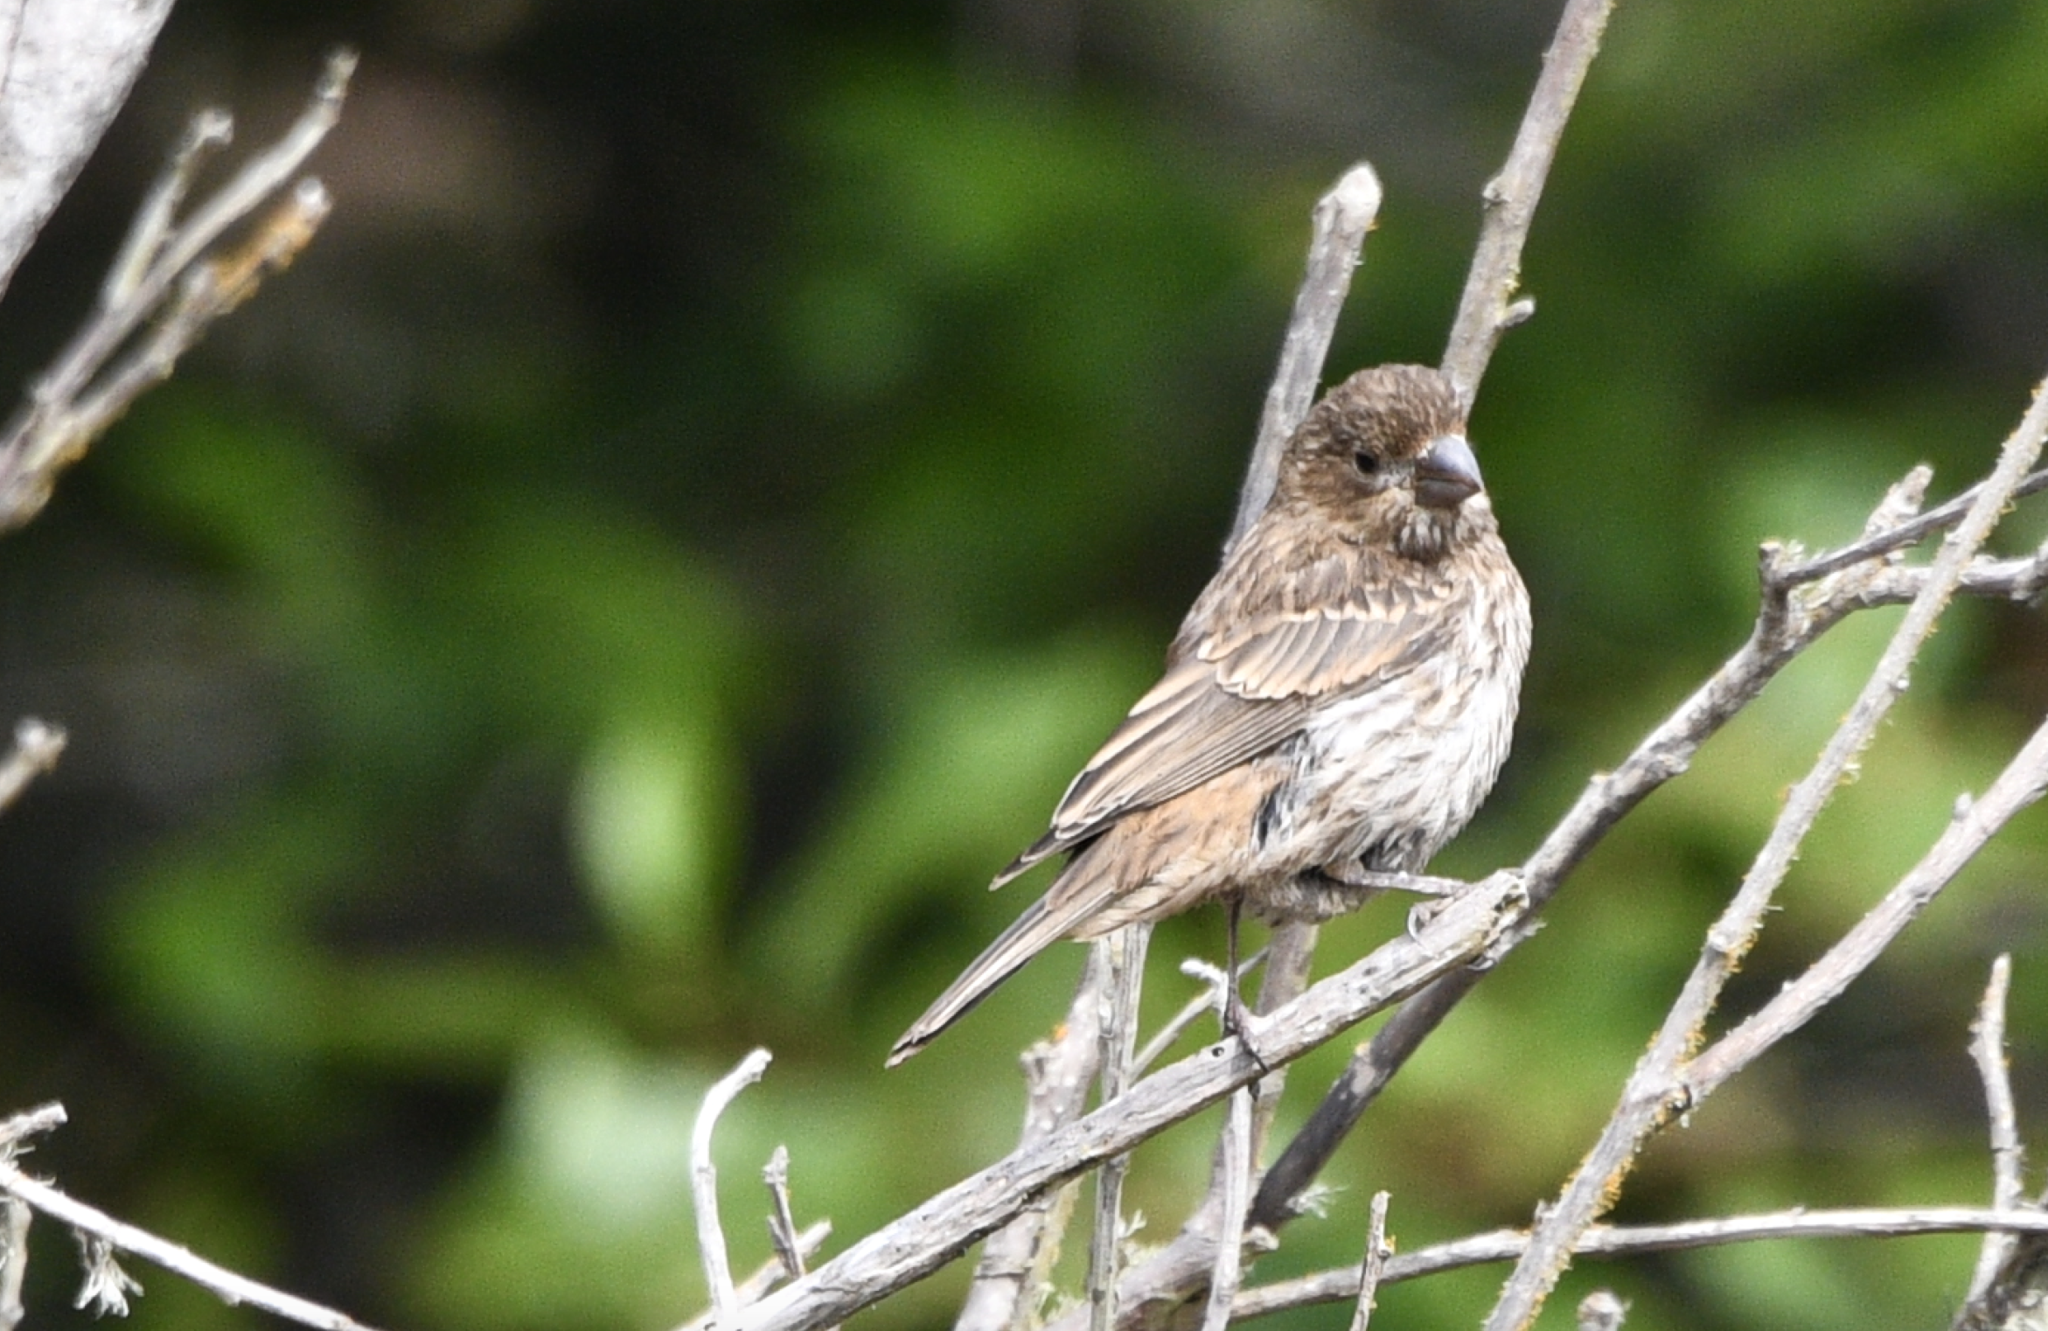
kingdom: Animalia
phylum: Chordata
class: Aves
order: Passeriformes
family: Fringillidae
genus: Haemorhous
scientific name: Haemorhous mexicanus
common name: House finch
